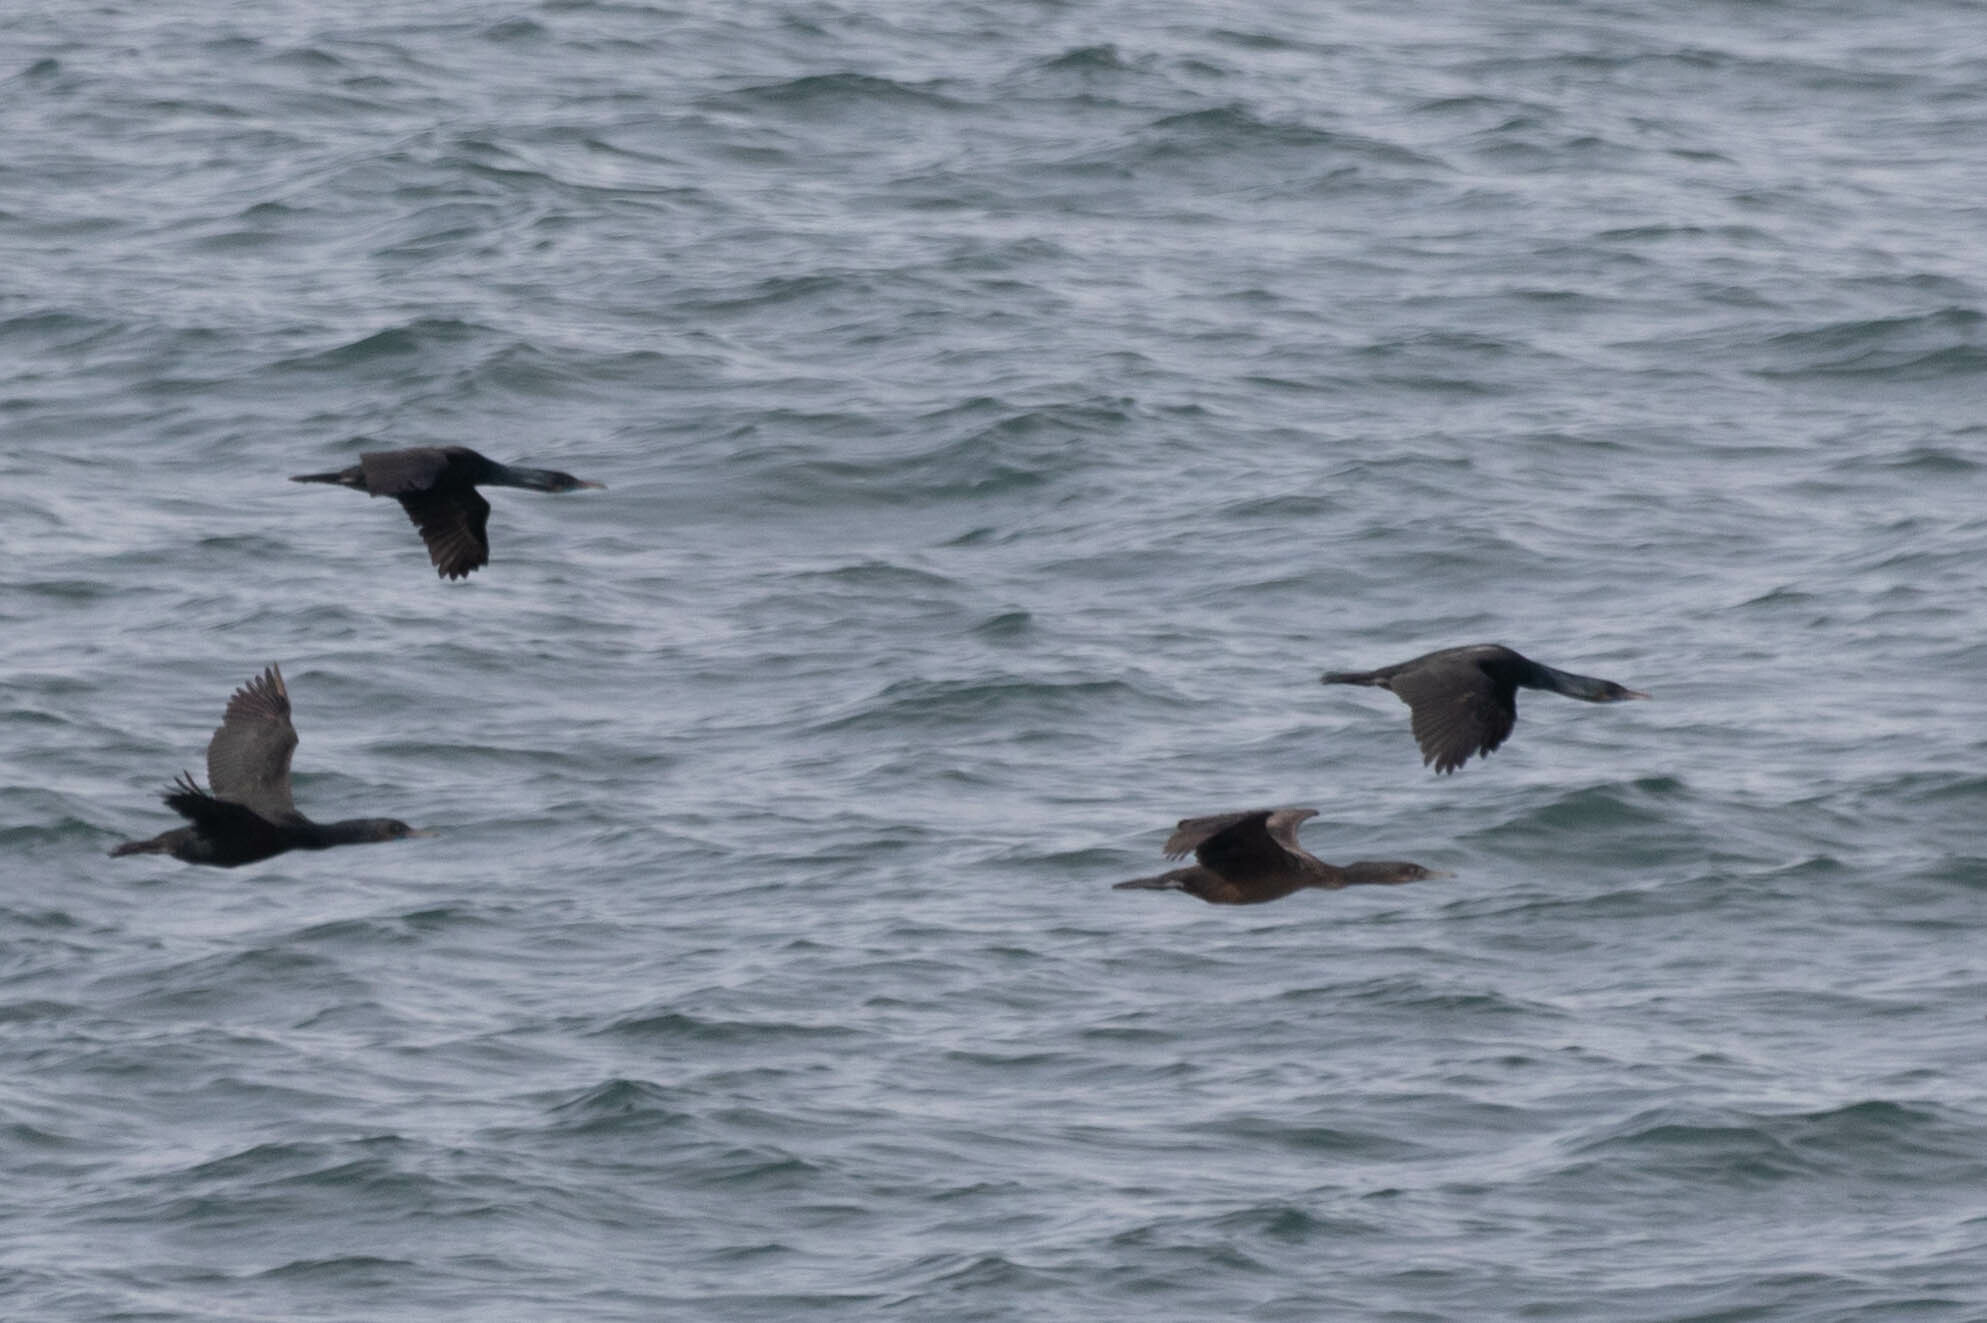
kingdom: Animalia
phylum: Chordata
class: Aves
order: Suliformes
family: Phalacrocoracidae
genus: Urile
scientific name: Urile penicillatus
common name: Brandt's cormorant
